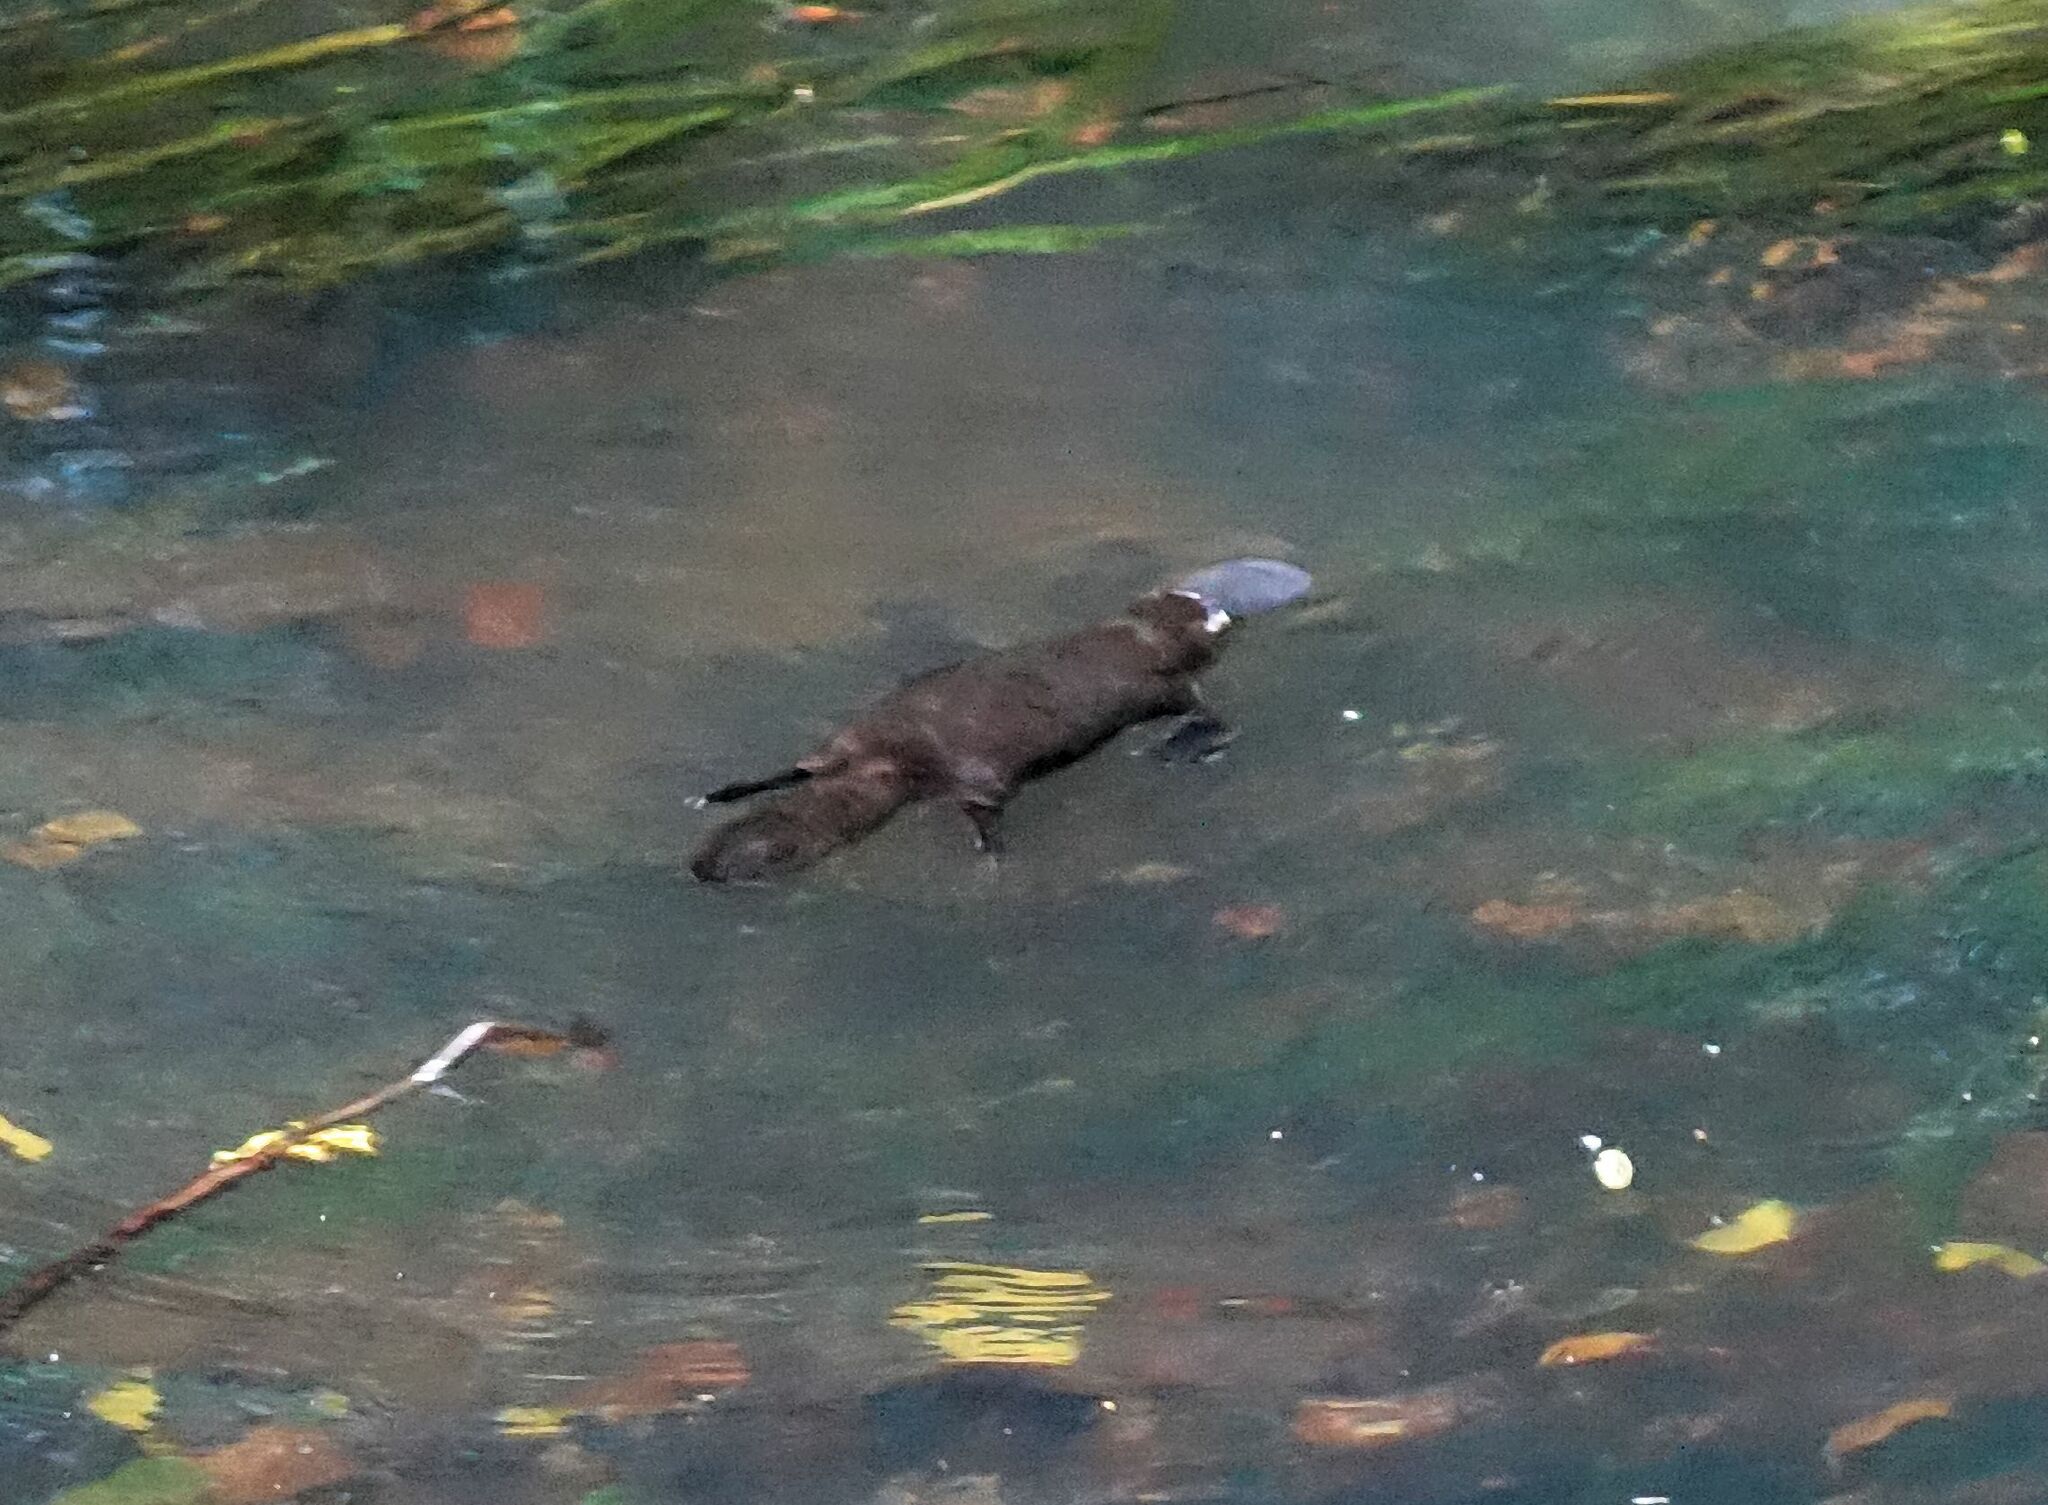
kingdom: Animalia
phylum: Chordata
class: Mammalia
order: Monotremata
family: Ornithorhynchidae
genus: Ornithorhynchus
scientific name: Ornithorhynchus anatinus
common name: Platypus
